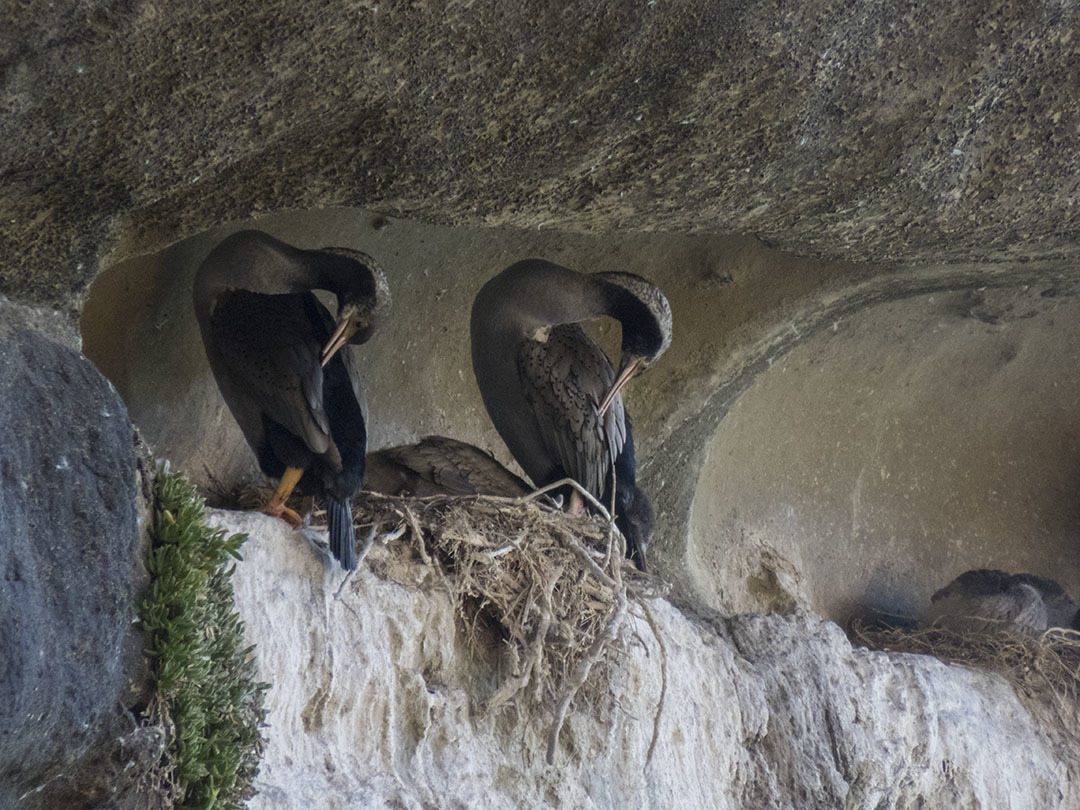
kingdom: Animalia
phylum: Chordata
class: Aves
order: Suliformes
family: Phalacrocoracidae
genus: Phalacrocorax
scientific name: Phalacrocorax punctatus
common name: Spotted shag
